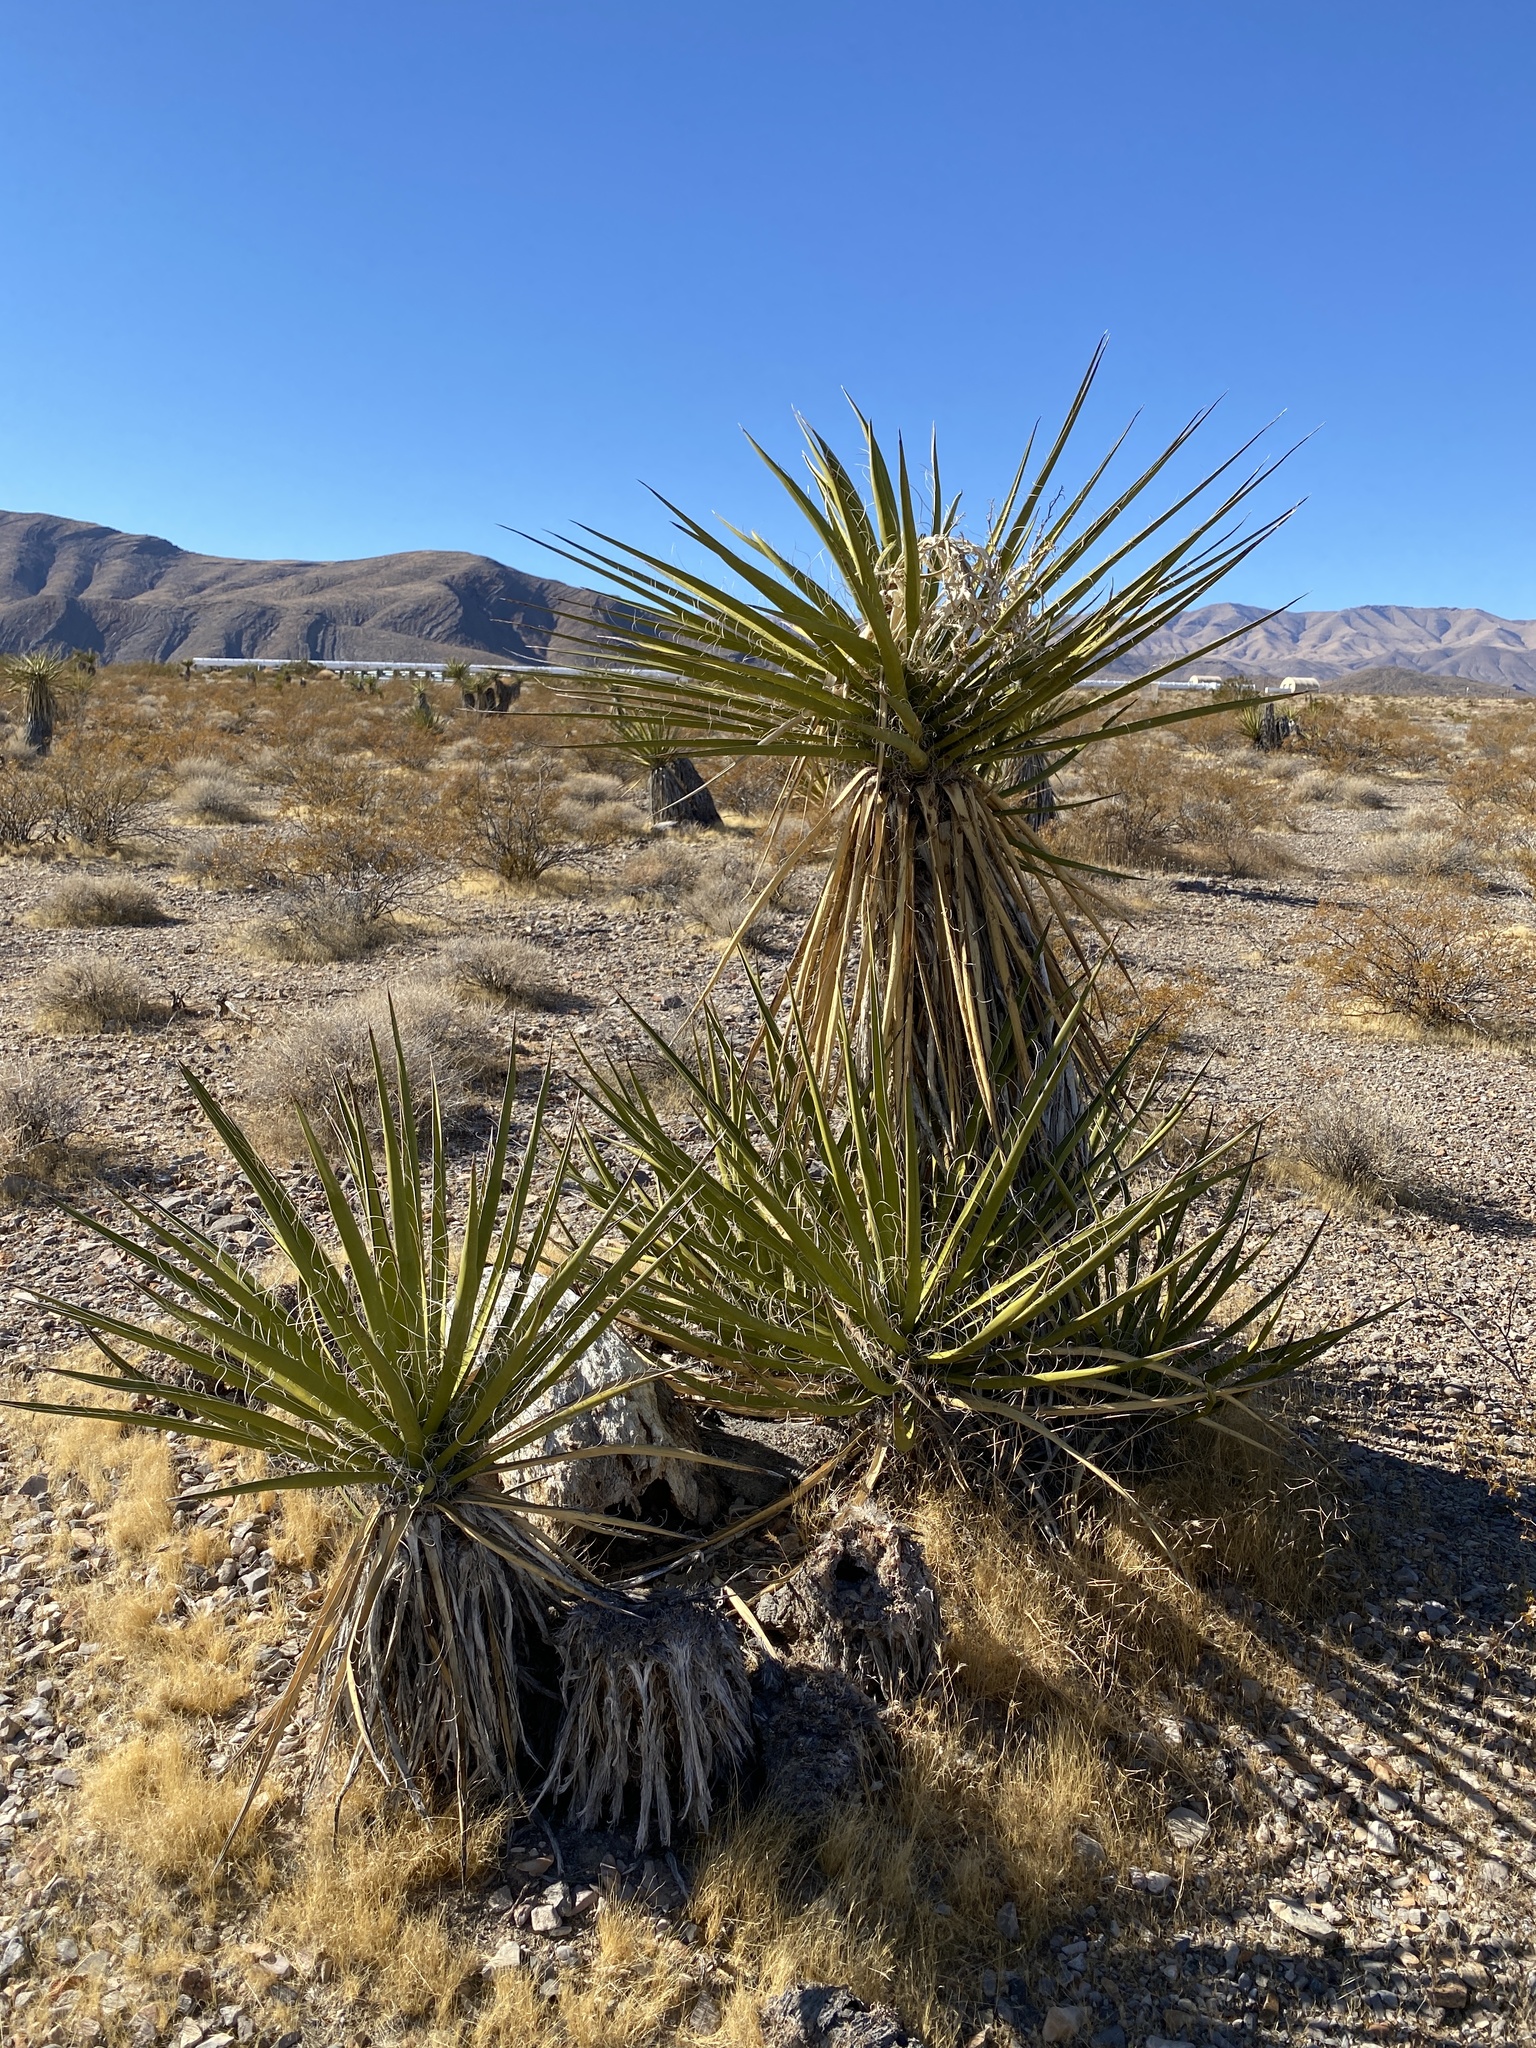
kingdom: Plantae
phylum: Tracheophyta
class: Liliopsida
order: Asparagales
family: Asparagaceae
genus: Yucca
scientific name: Yucca schidigera
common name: Mojave yucca
